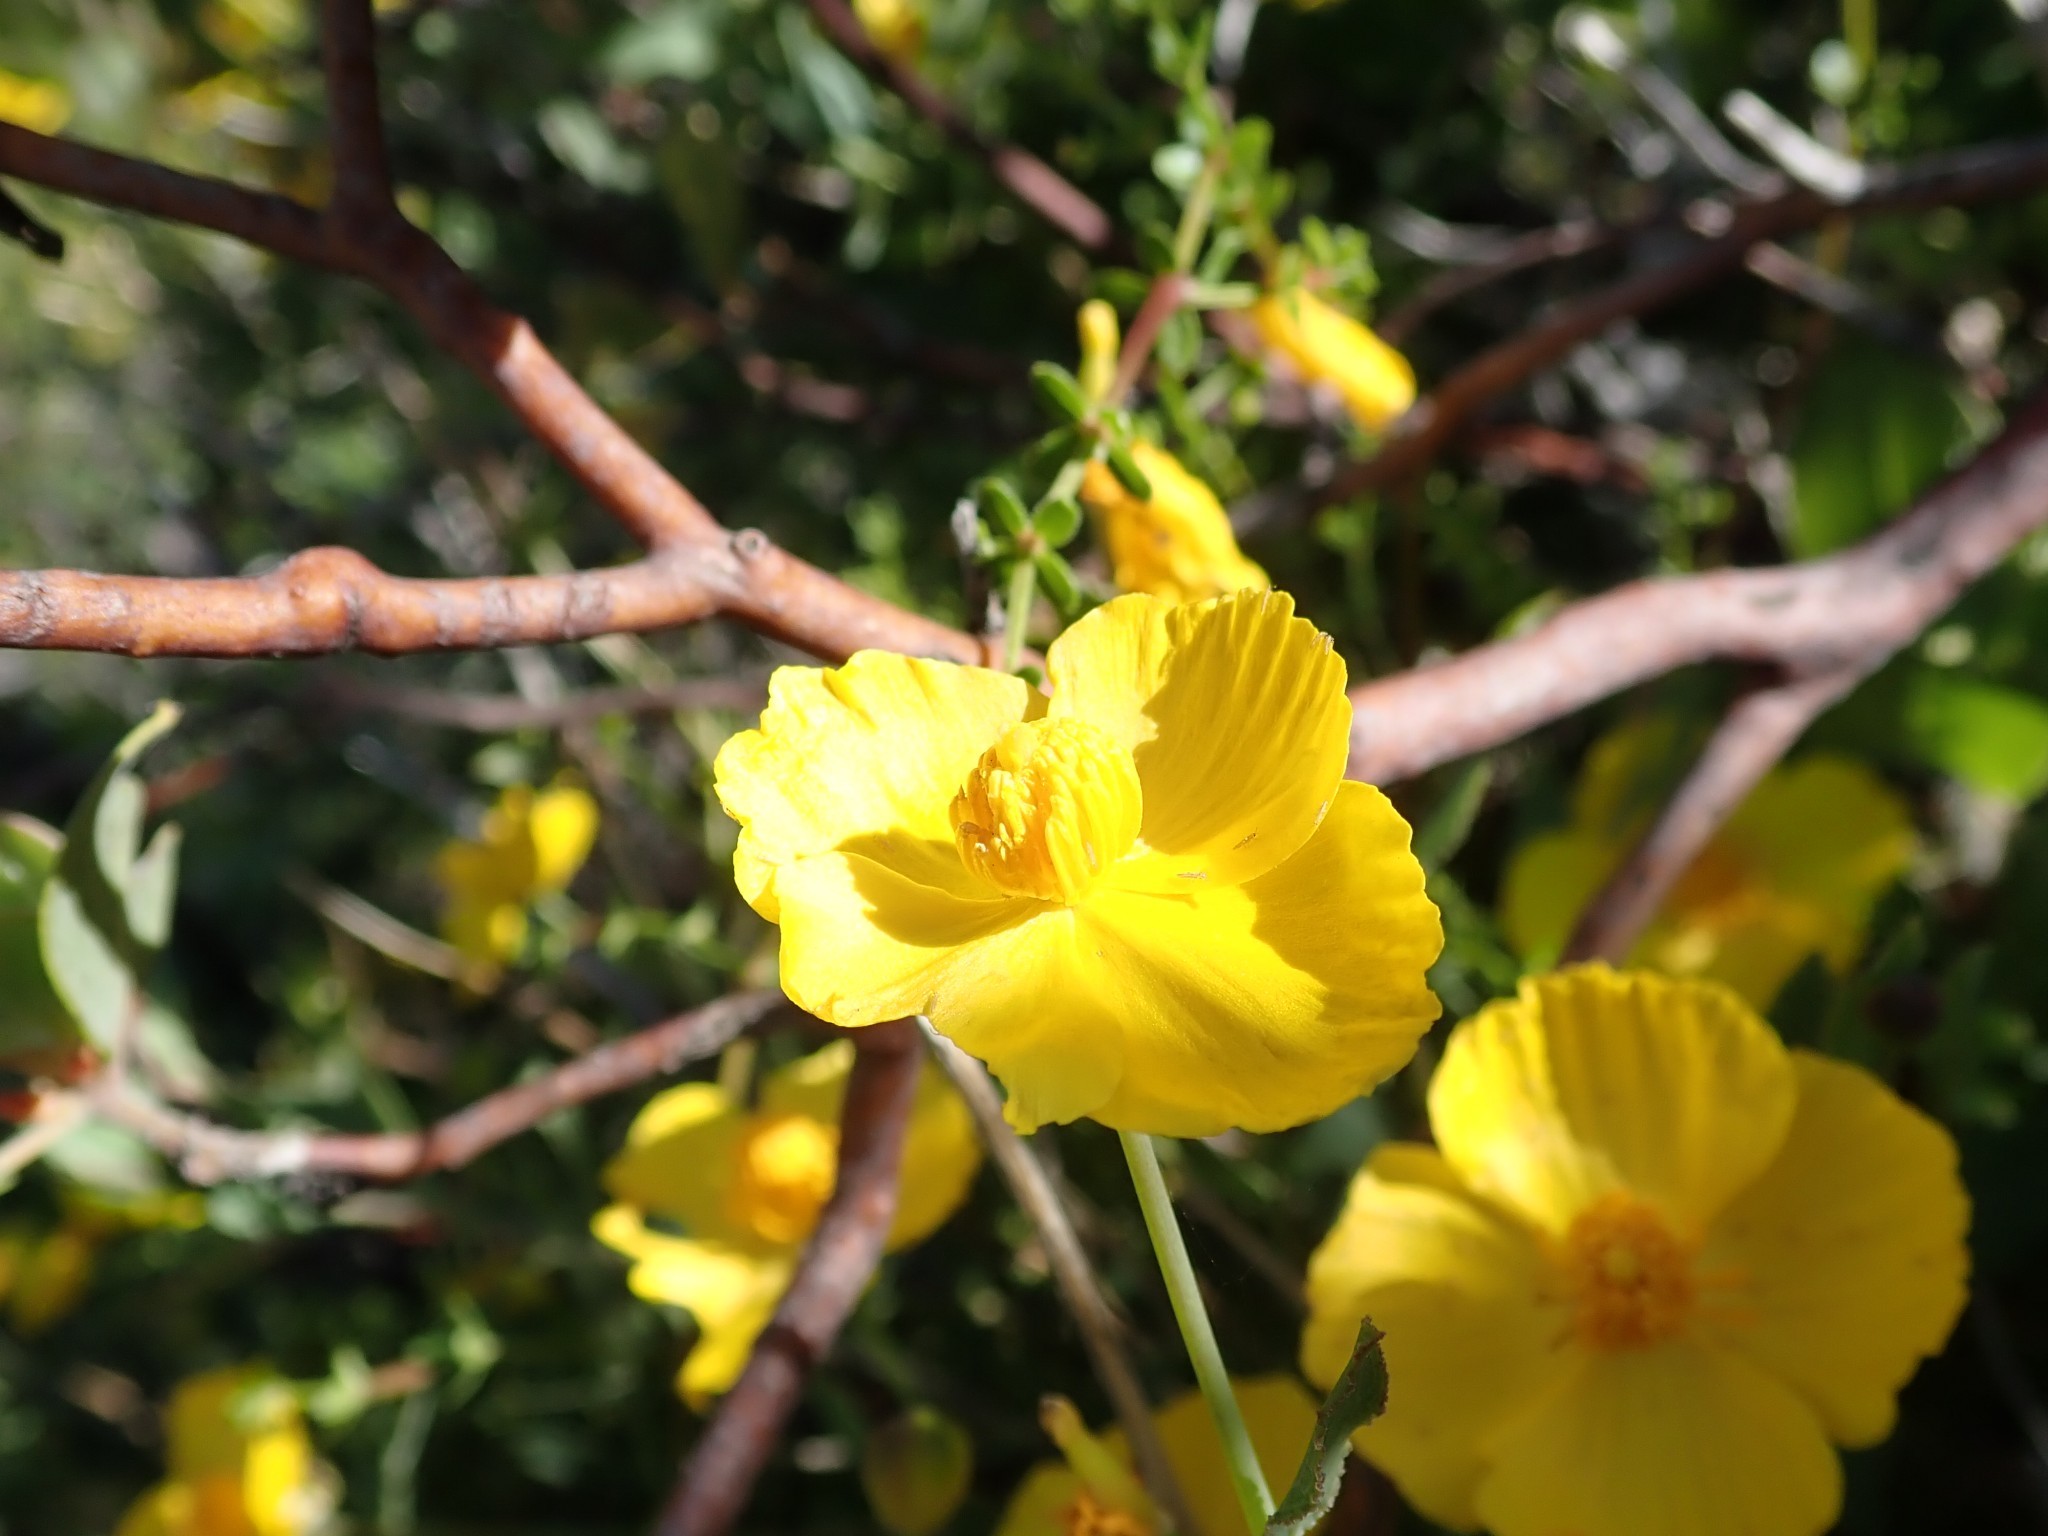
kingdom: Plantae
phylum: Tracheophyta
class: Magnoliopsida
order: Ranunculales
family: Papaveraceae
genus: Dendromecon
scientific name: Dendromecon rigida
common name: Tree poppy
